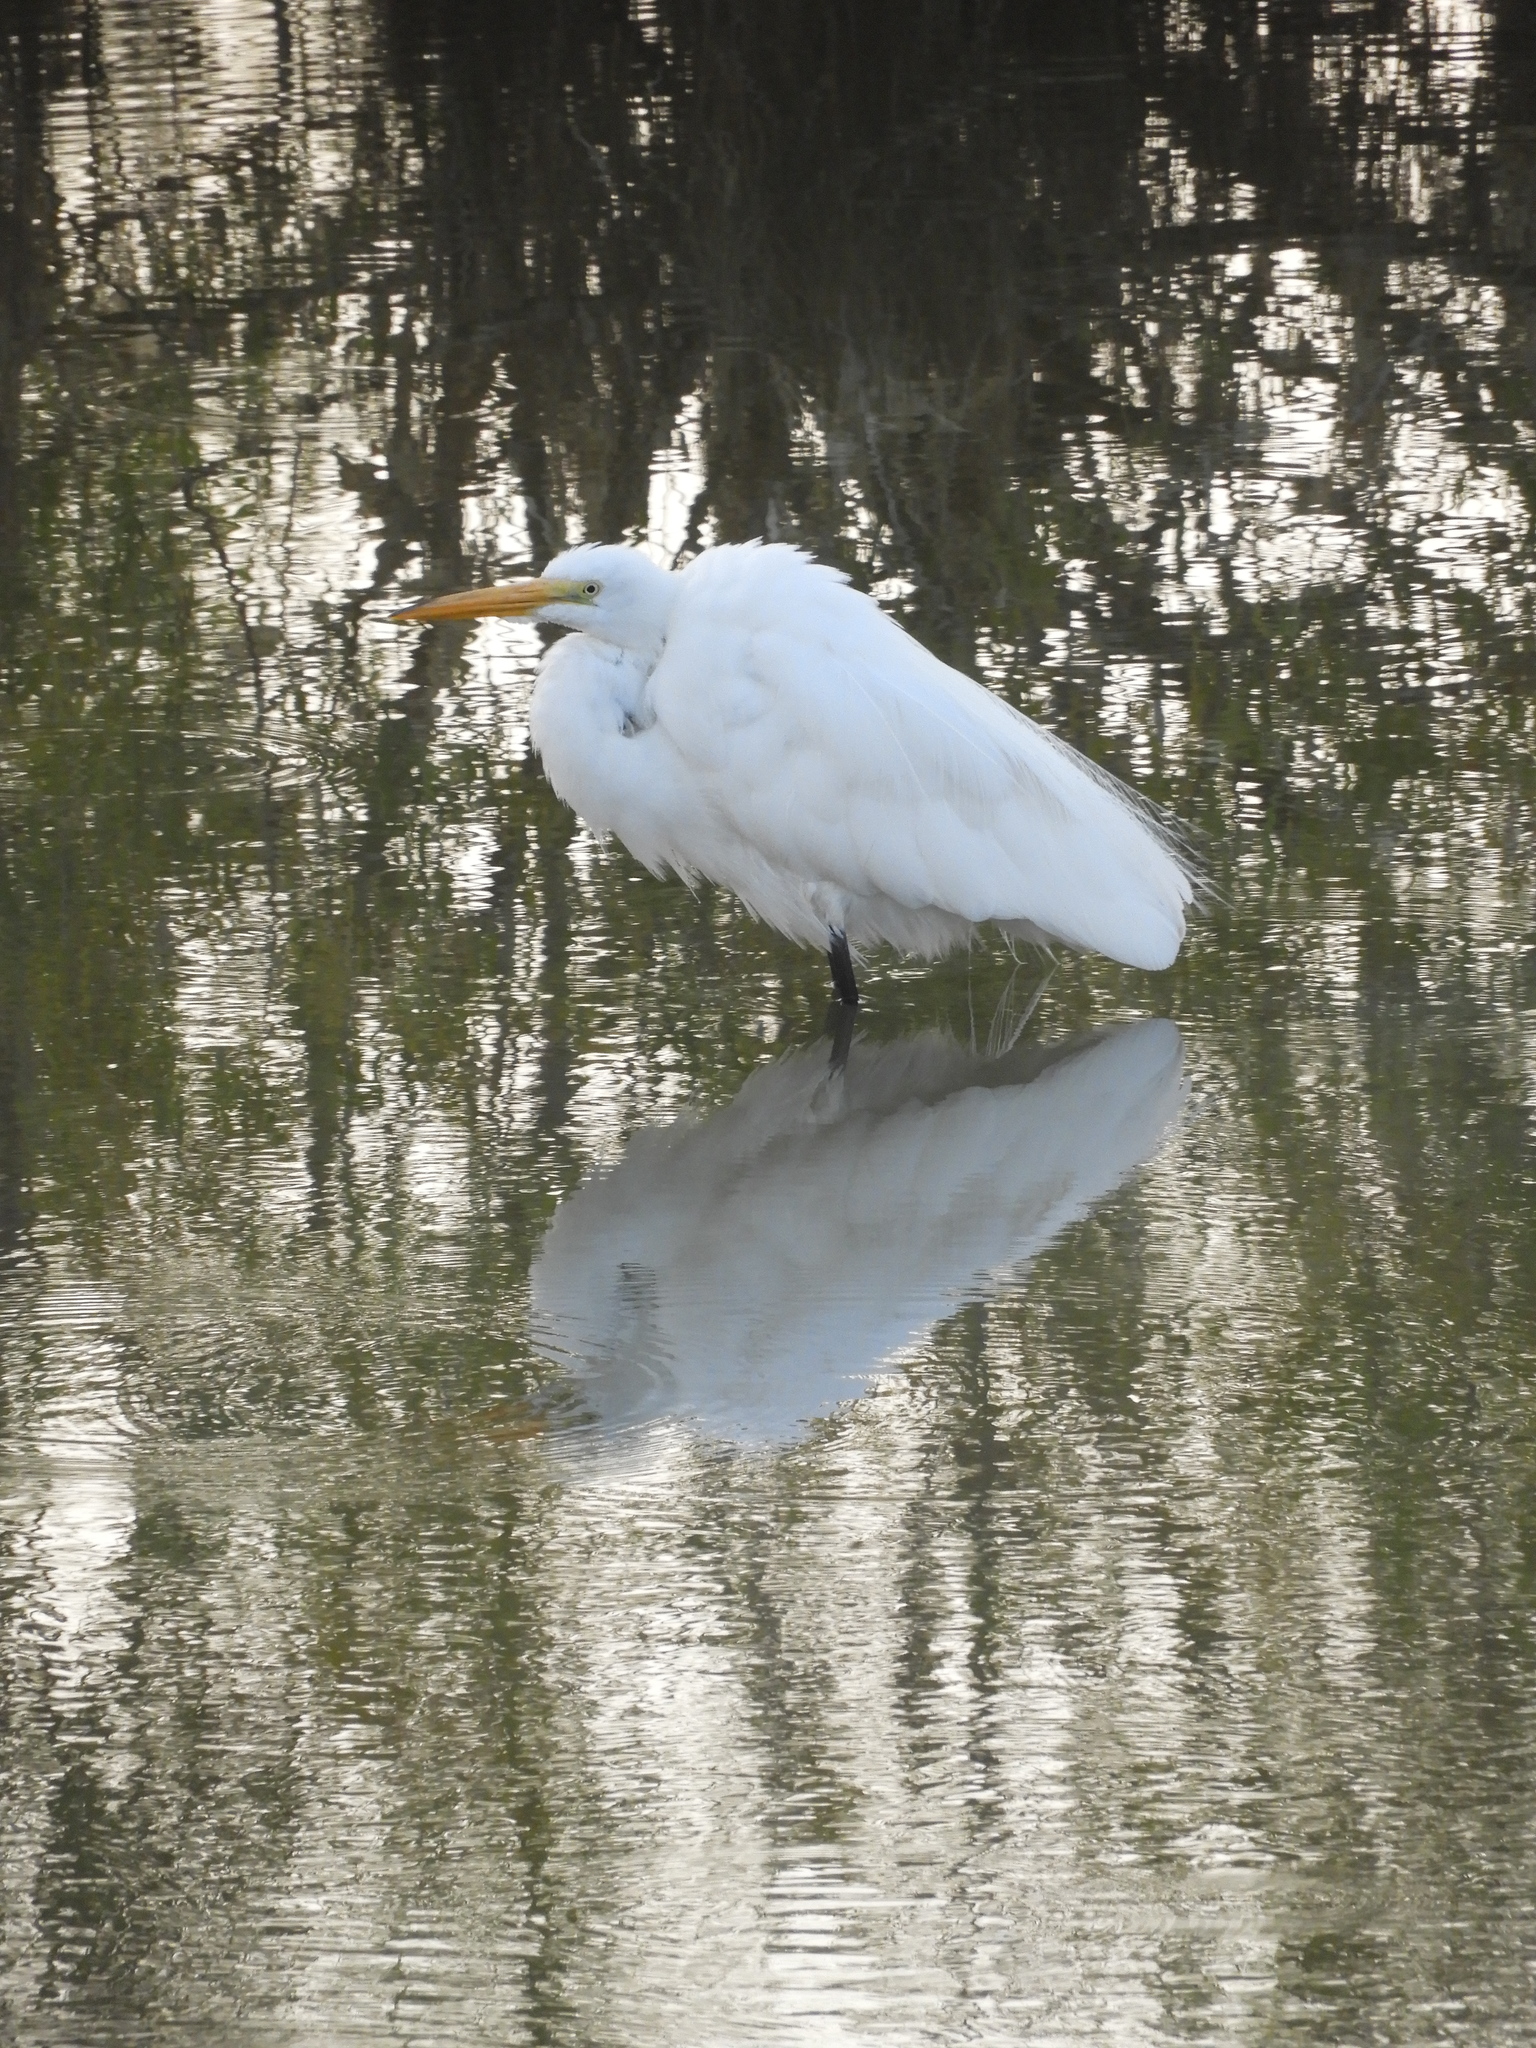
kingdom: Animalia
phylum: Chordata
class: Aves
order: Pelecaniformes
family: Ardeidae
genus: Ardea
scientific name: Ardea alba
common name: Great egret
